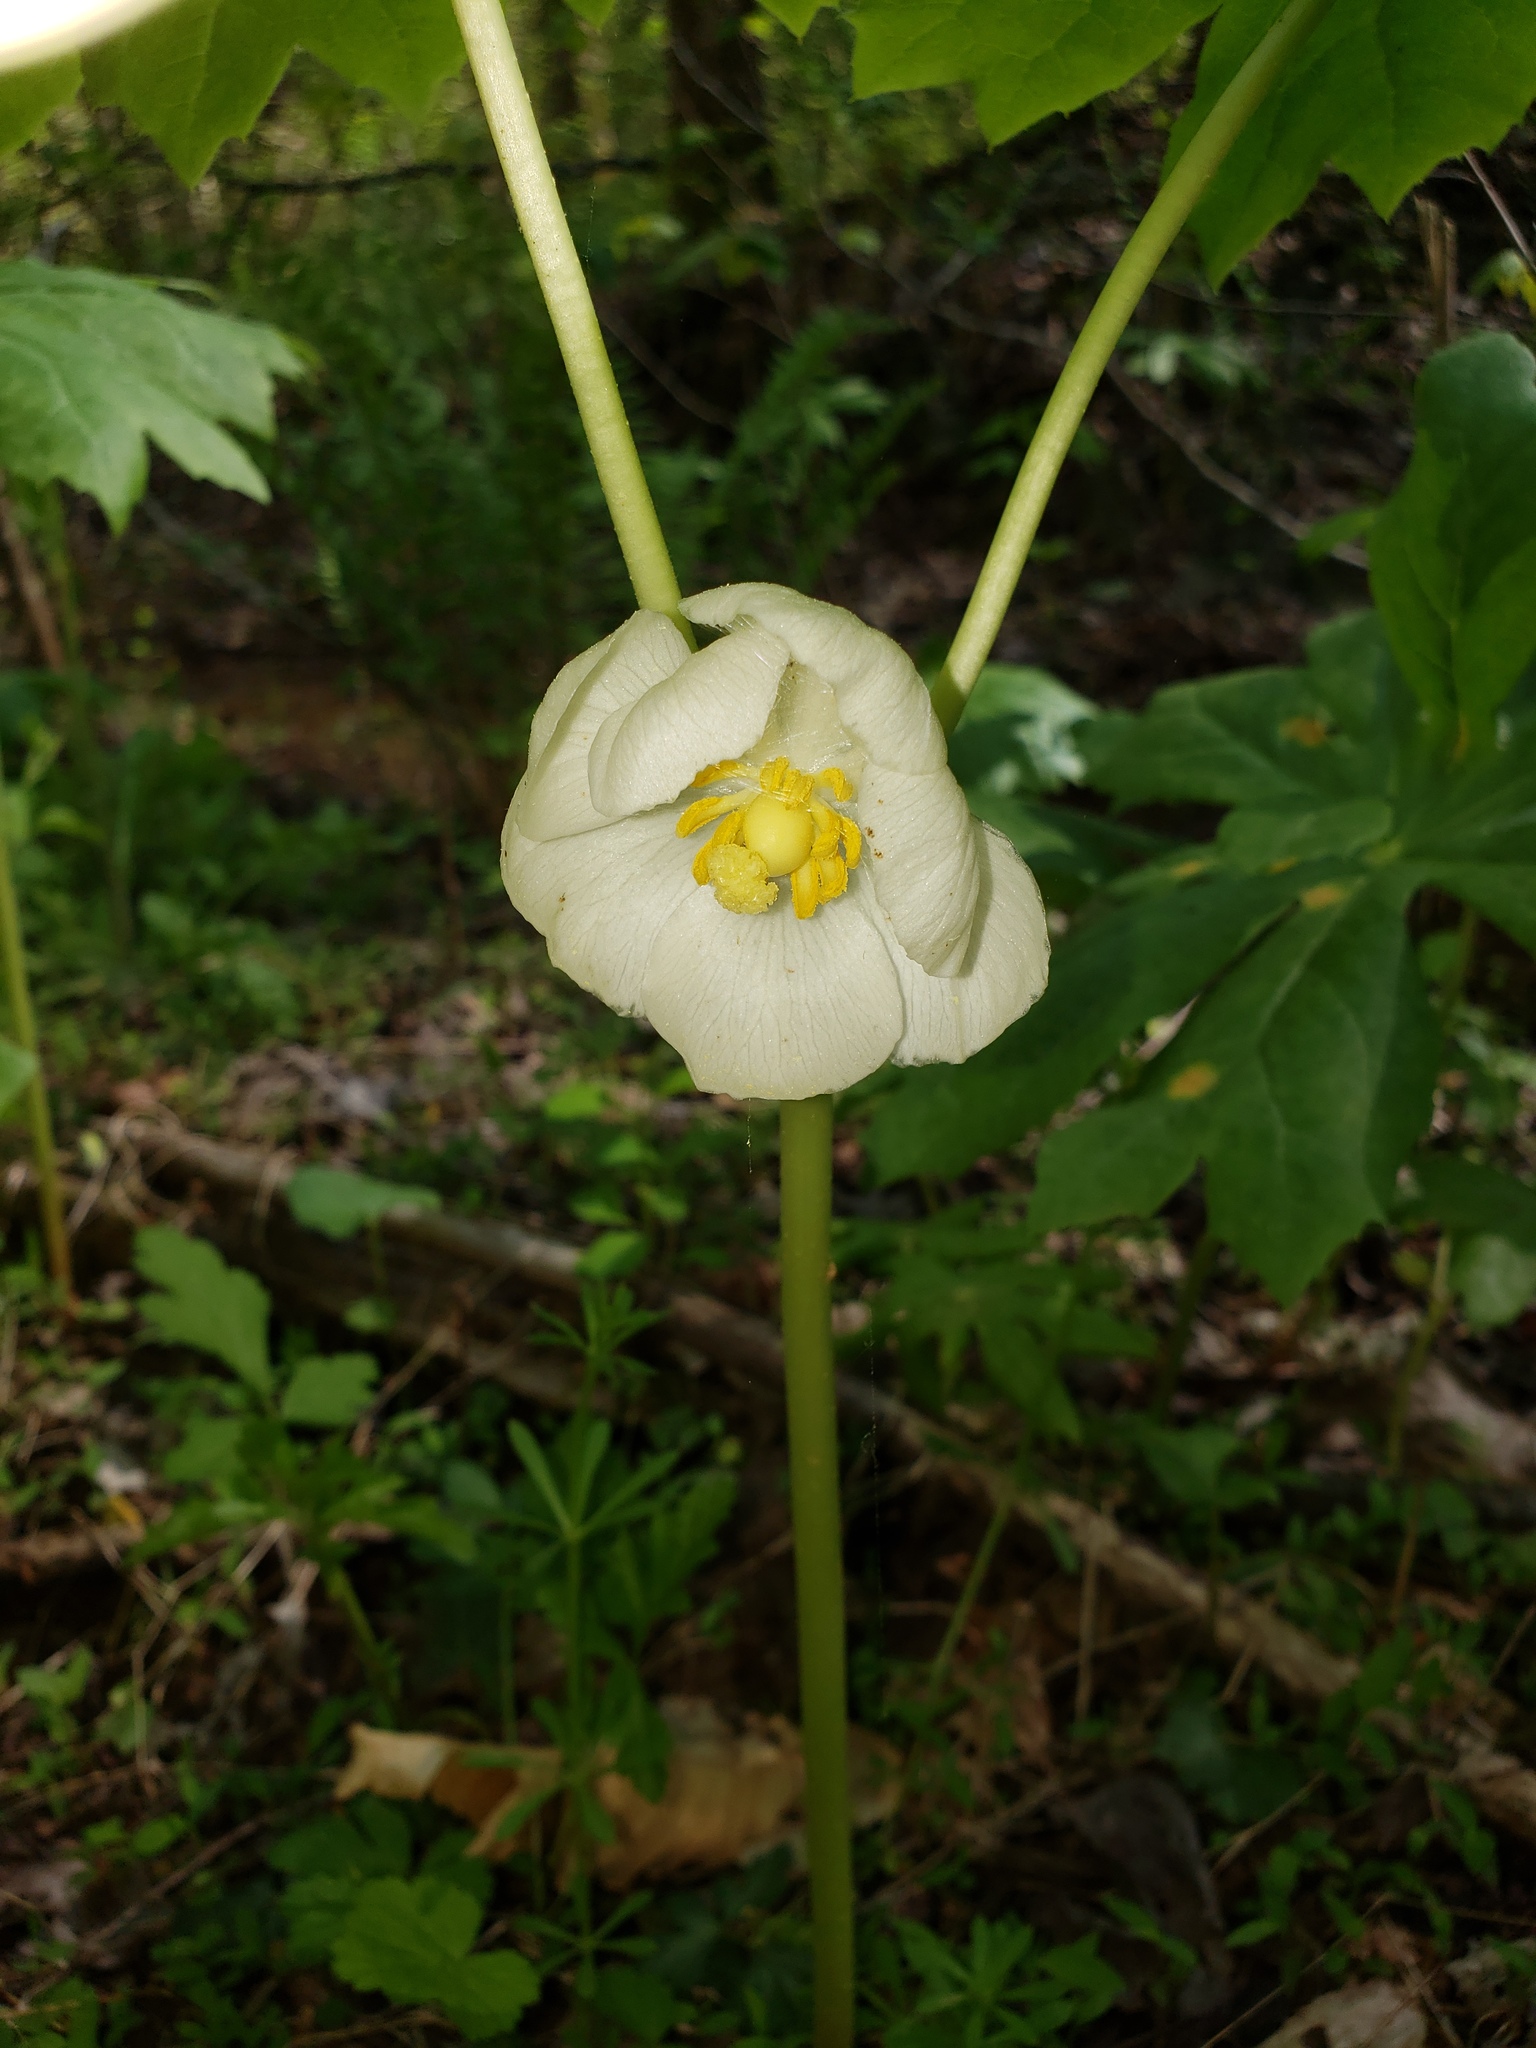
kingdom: Plantae
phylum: Tracheophyta
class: Magnoliopsida
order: Ranunculales
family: Berberidaceae
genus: Podophyllum
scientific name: Podophyllum peltatum
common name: Wild mandrake
